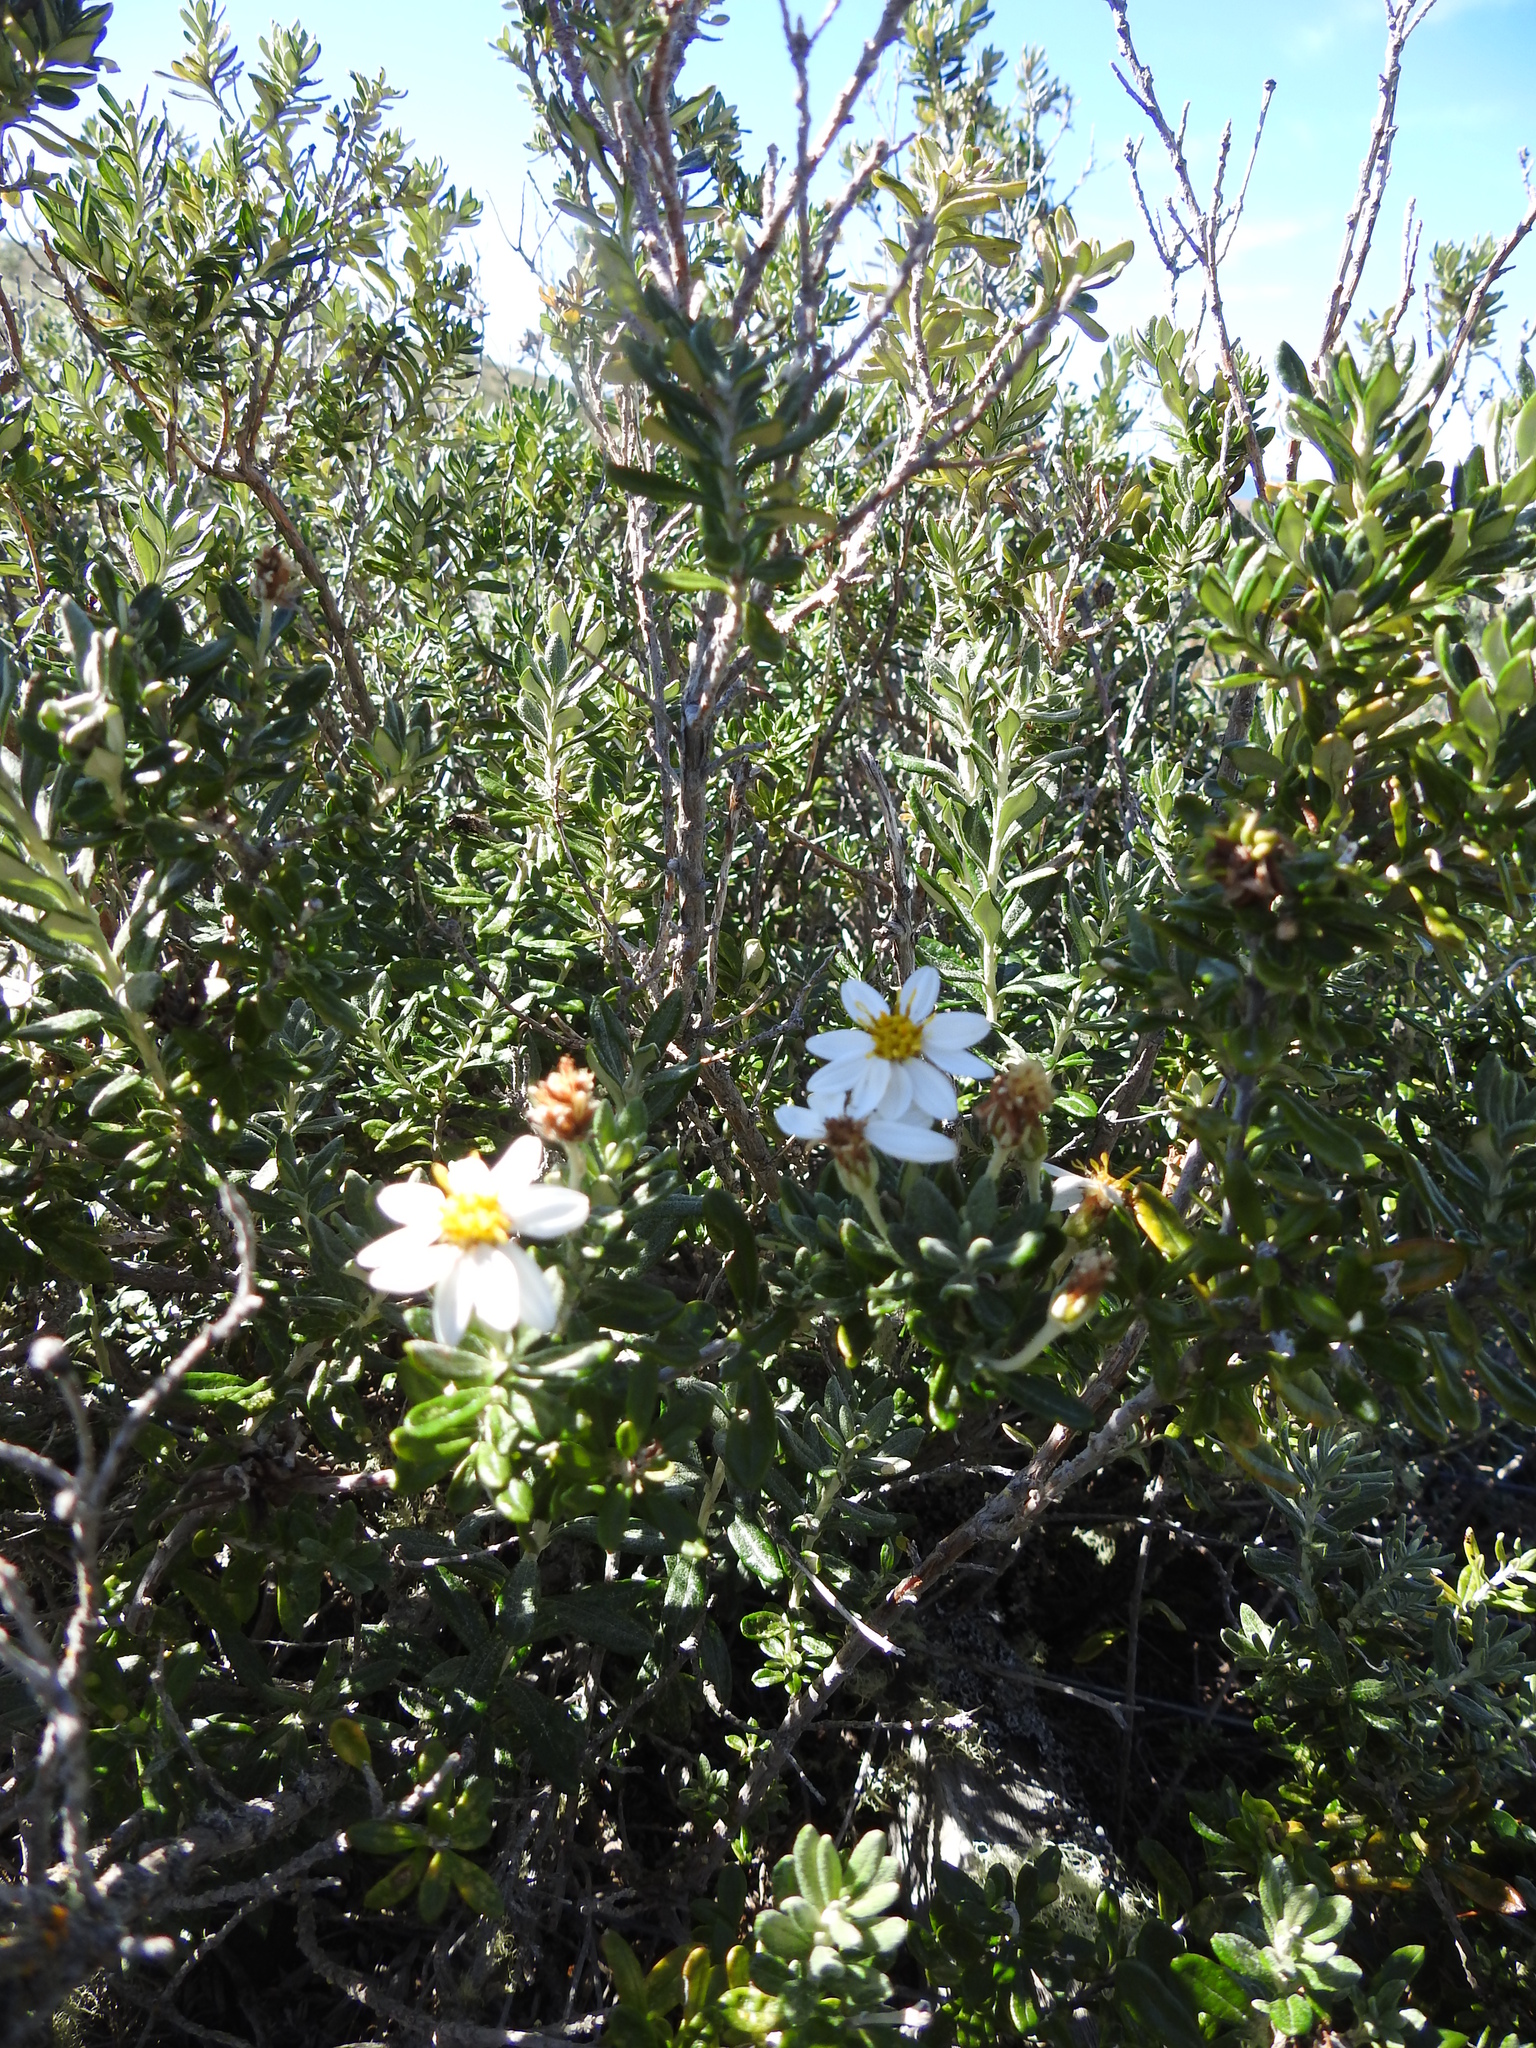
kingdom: Plantae
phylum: Tracheophyta
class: Magnoliopsida
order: Asterales
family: Asteraceae
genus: Chiliotrichum
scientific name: Chiliotrichum diffusum
